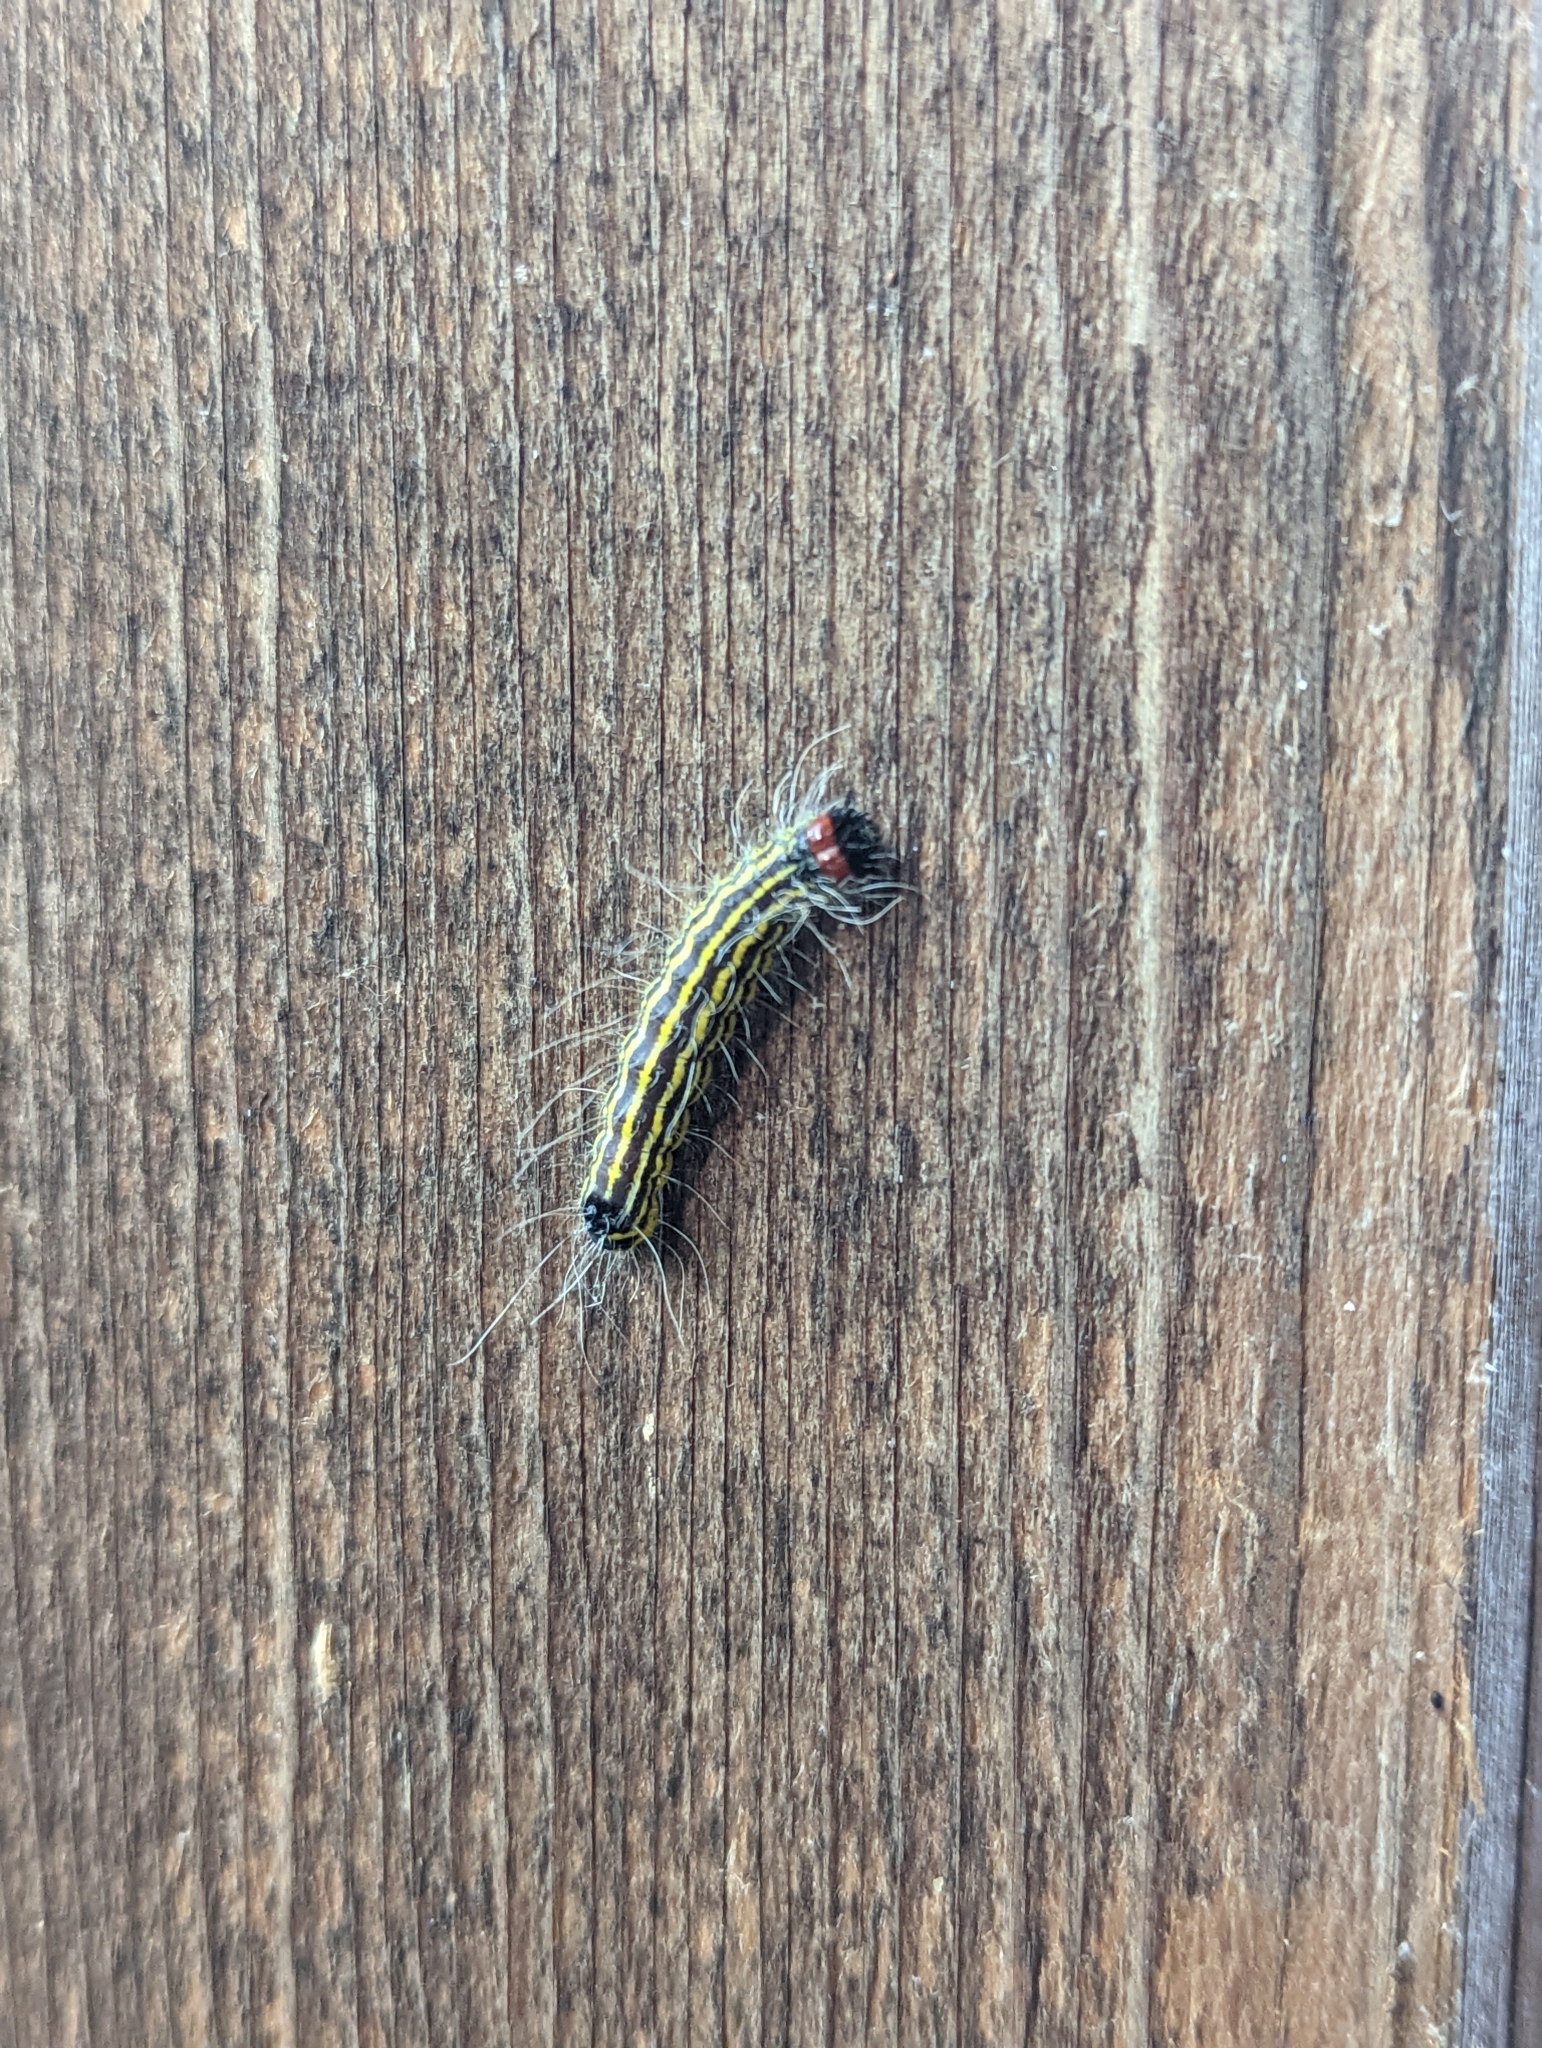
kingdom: Animalia
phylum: Arthropoda
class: Insecta
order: Lepidoptera
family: Noctuidae
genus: Acronicta
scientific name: Acronicta radcliffei
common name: Radcliffe's dagger
